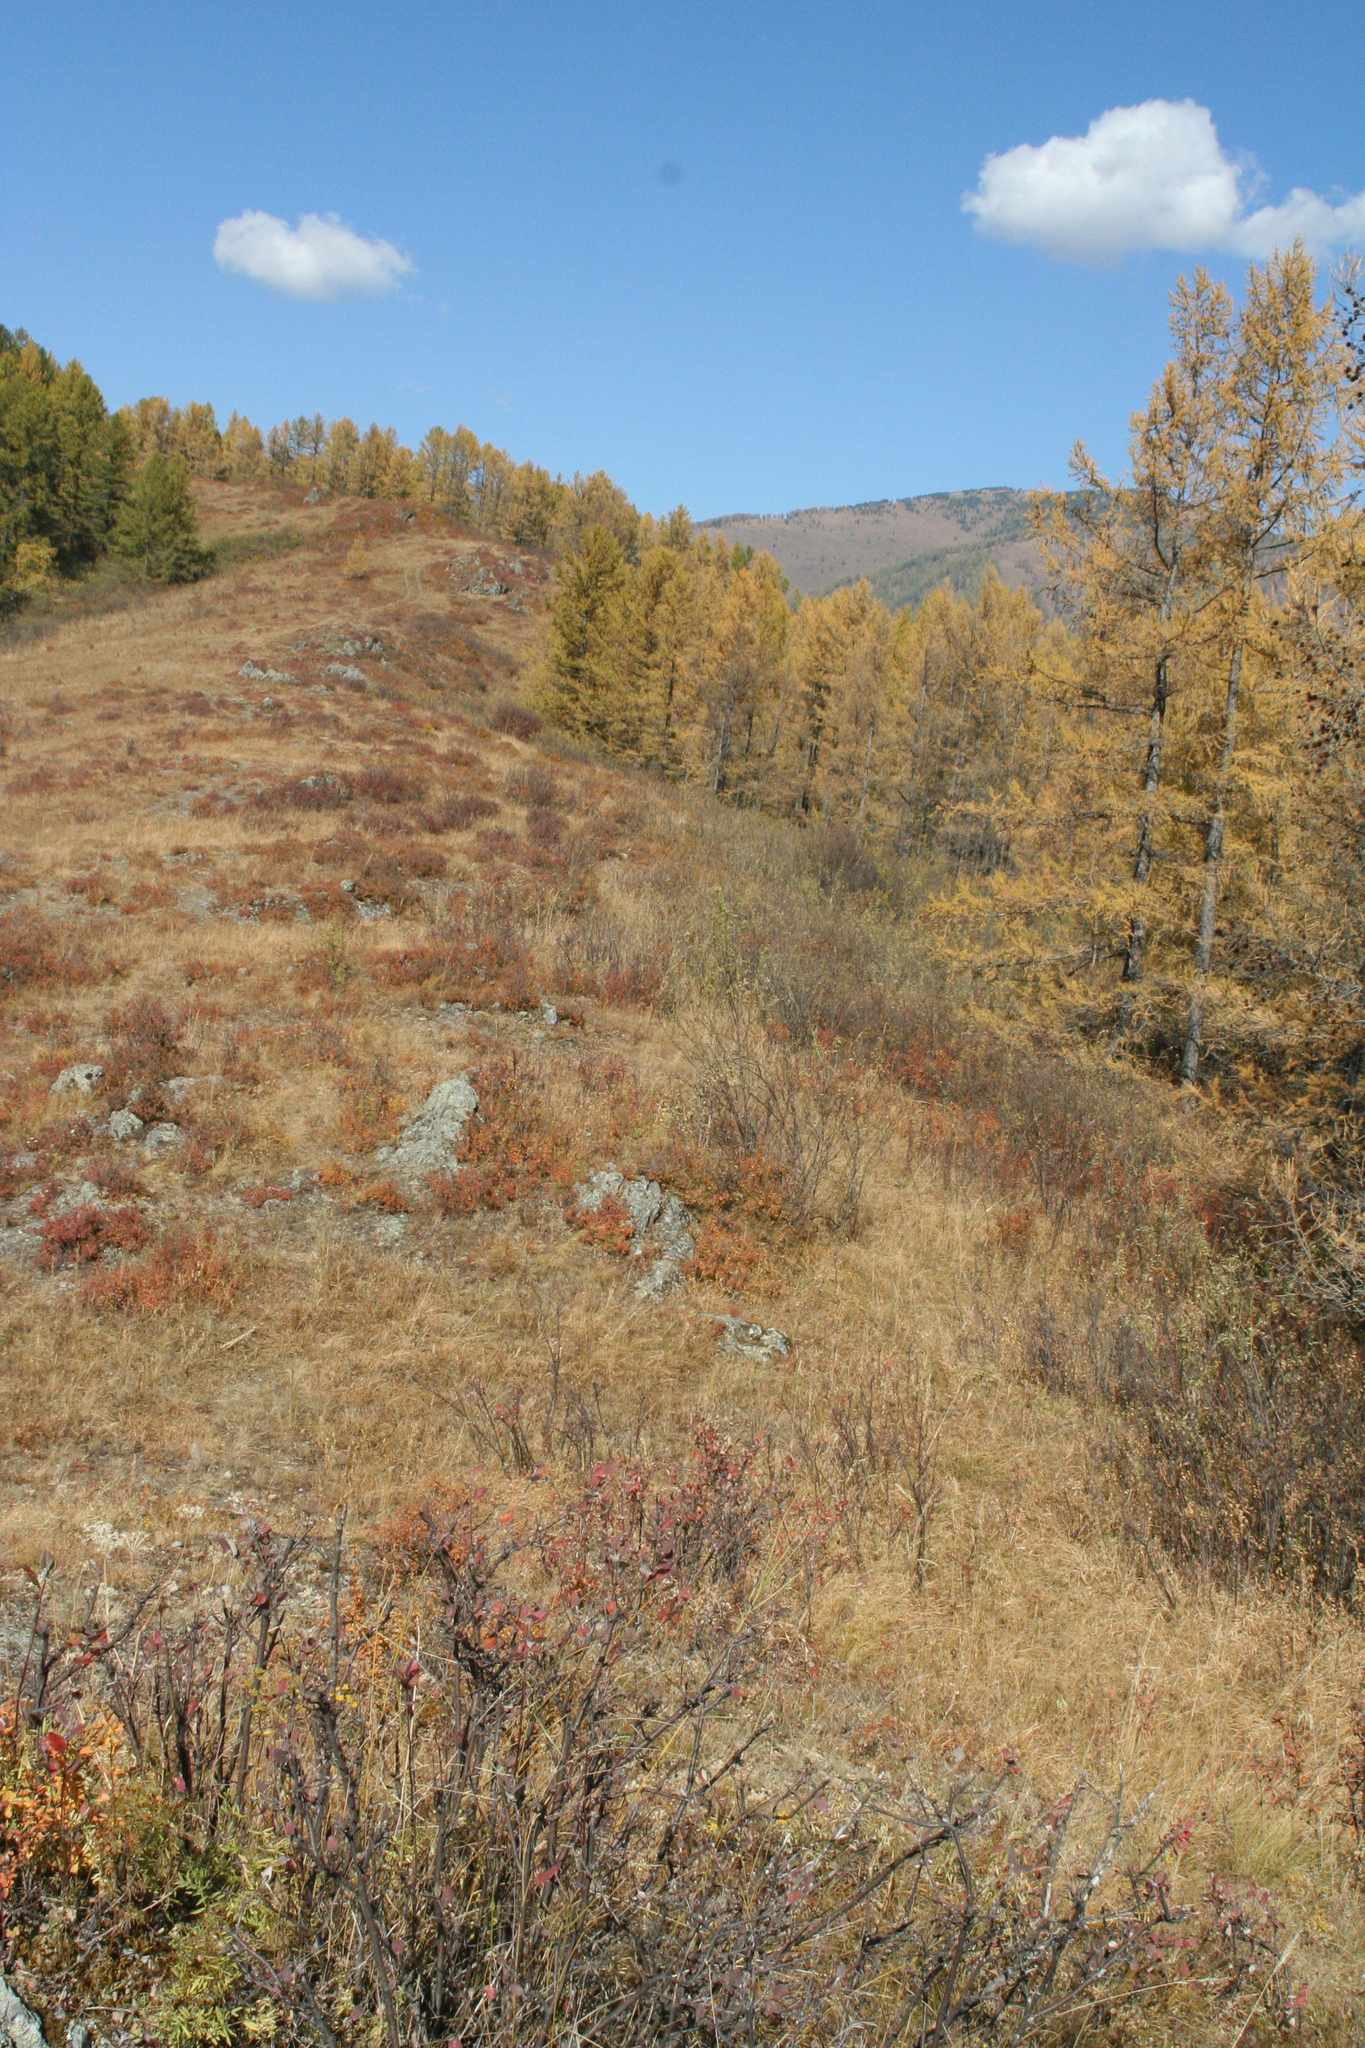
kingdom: Plantae
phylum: Tracheophyta
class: Pinopsida
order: Pinales
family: Pinaceae
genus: Larix
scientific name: Larix sibirica
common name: Siberian larch
